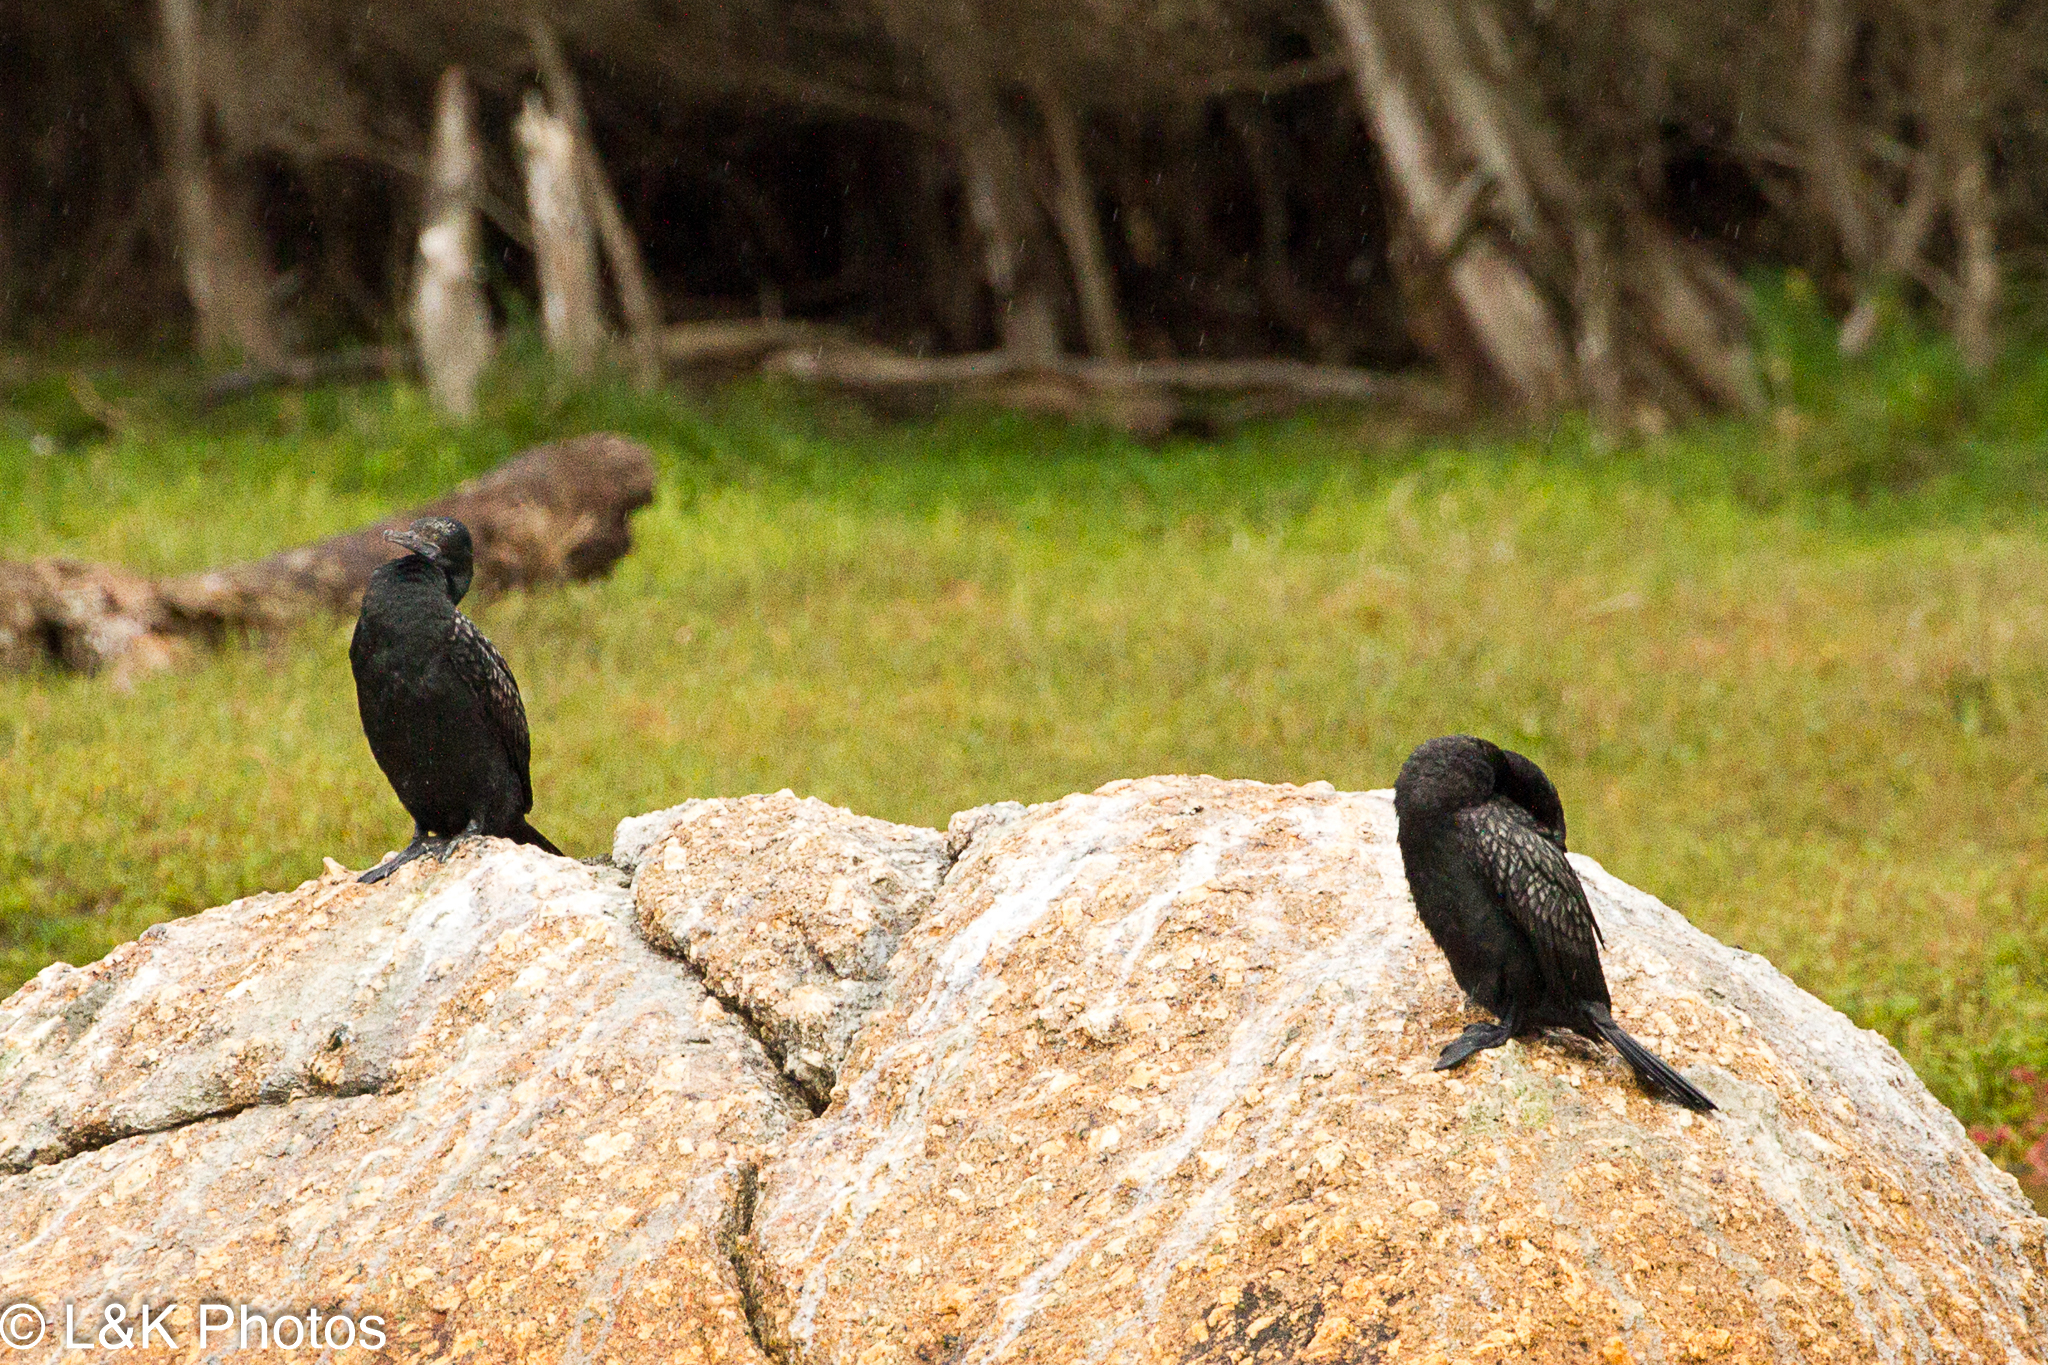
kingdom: Animalia
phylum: Chordata
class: Aves
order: Suliformes
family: Phalacrocoracidae
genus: Phalacrocorax
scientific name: Phalacrocorax sulcirostris
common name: Little black cormorant
